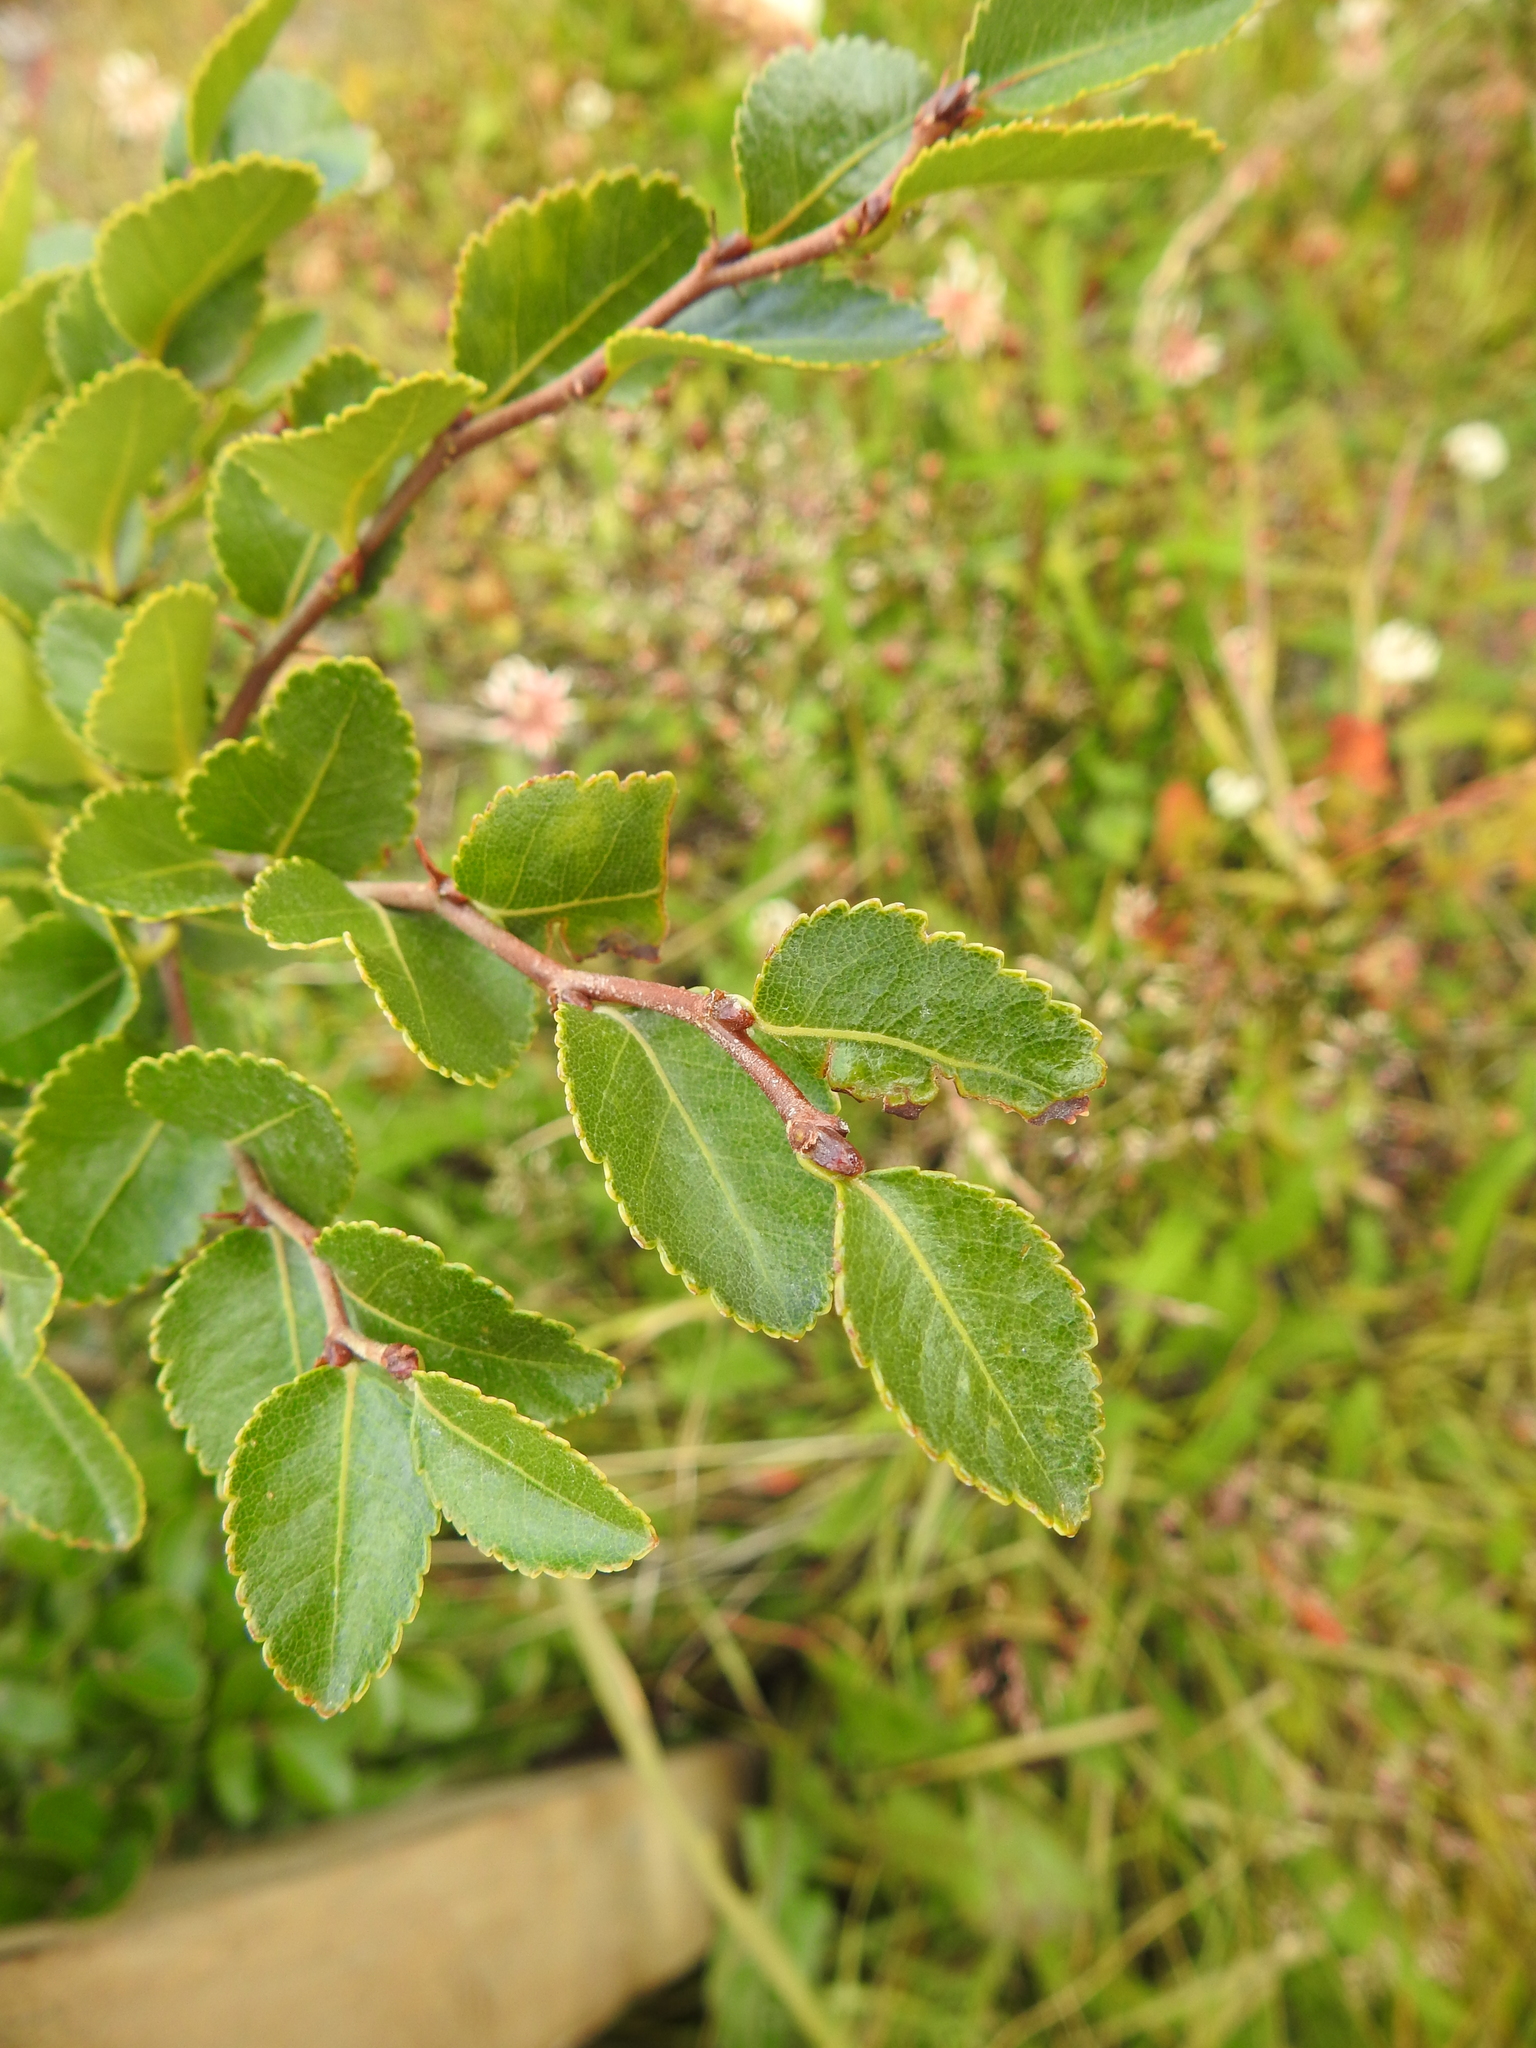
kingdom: Plantae
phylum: Tracheophyta
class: Magnoliopsida
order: Fagales
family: Nothofagaceae
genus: Nothofagus
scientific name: Nothofagus betuloides
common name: Magellan's beech
